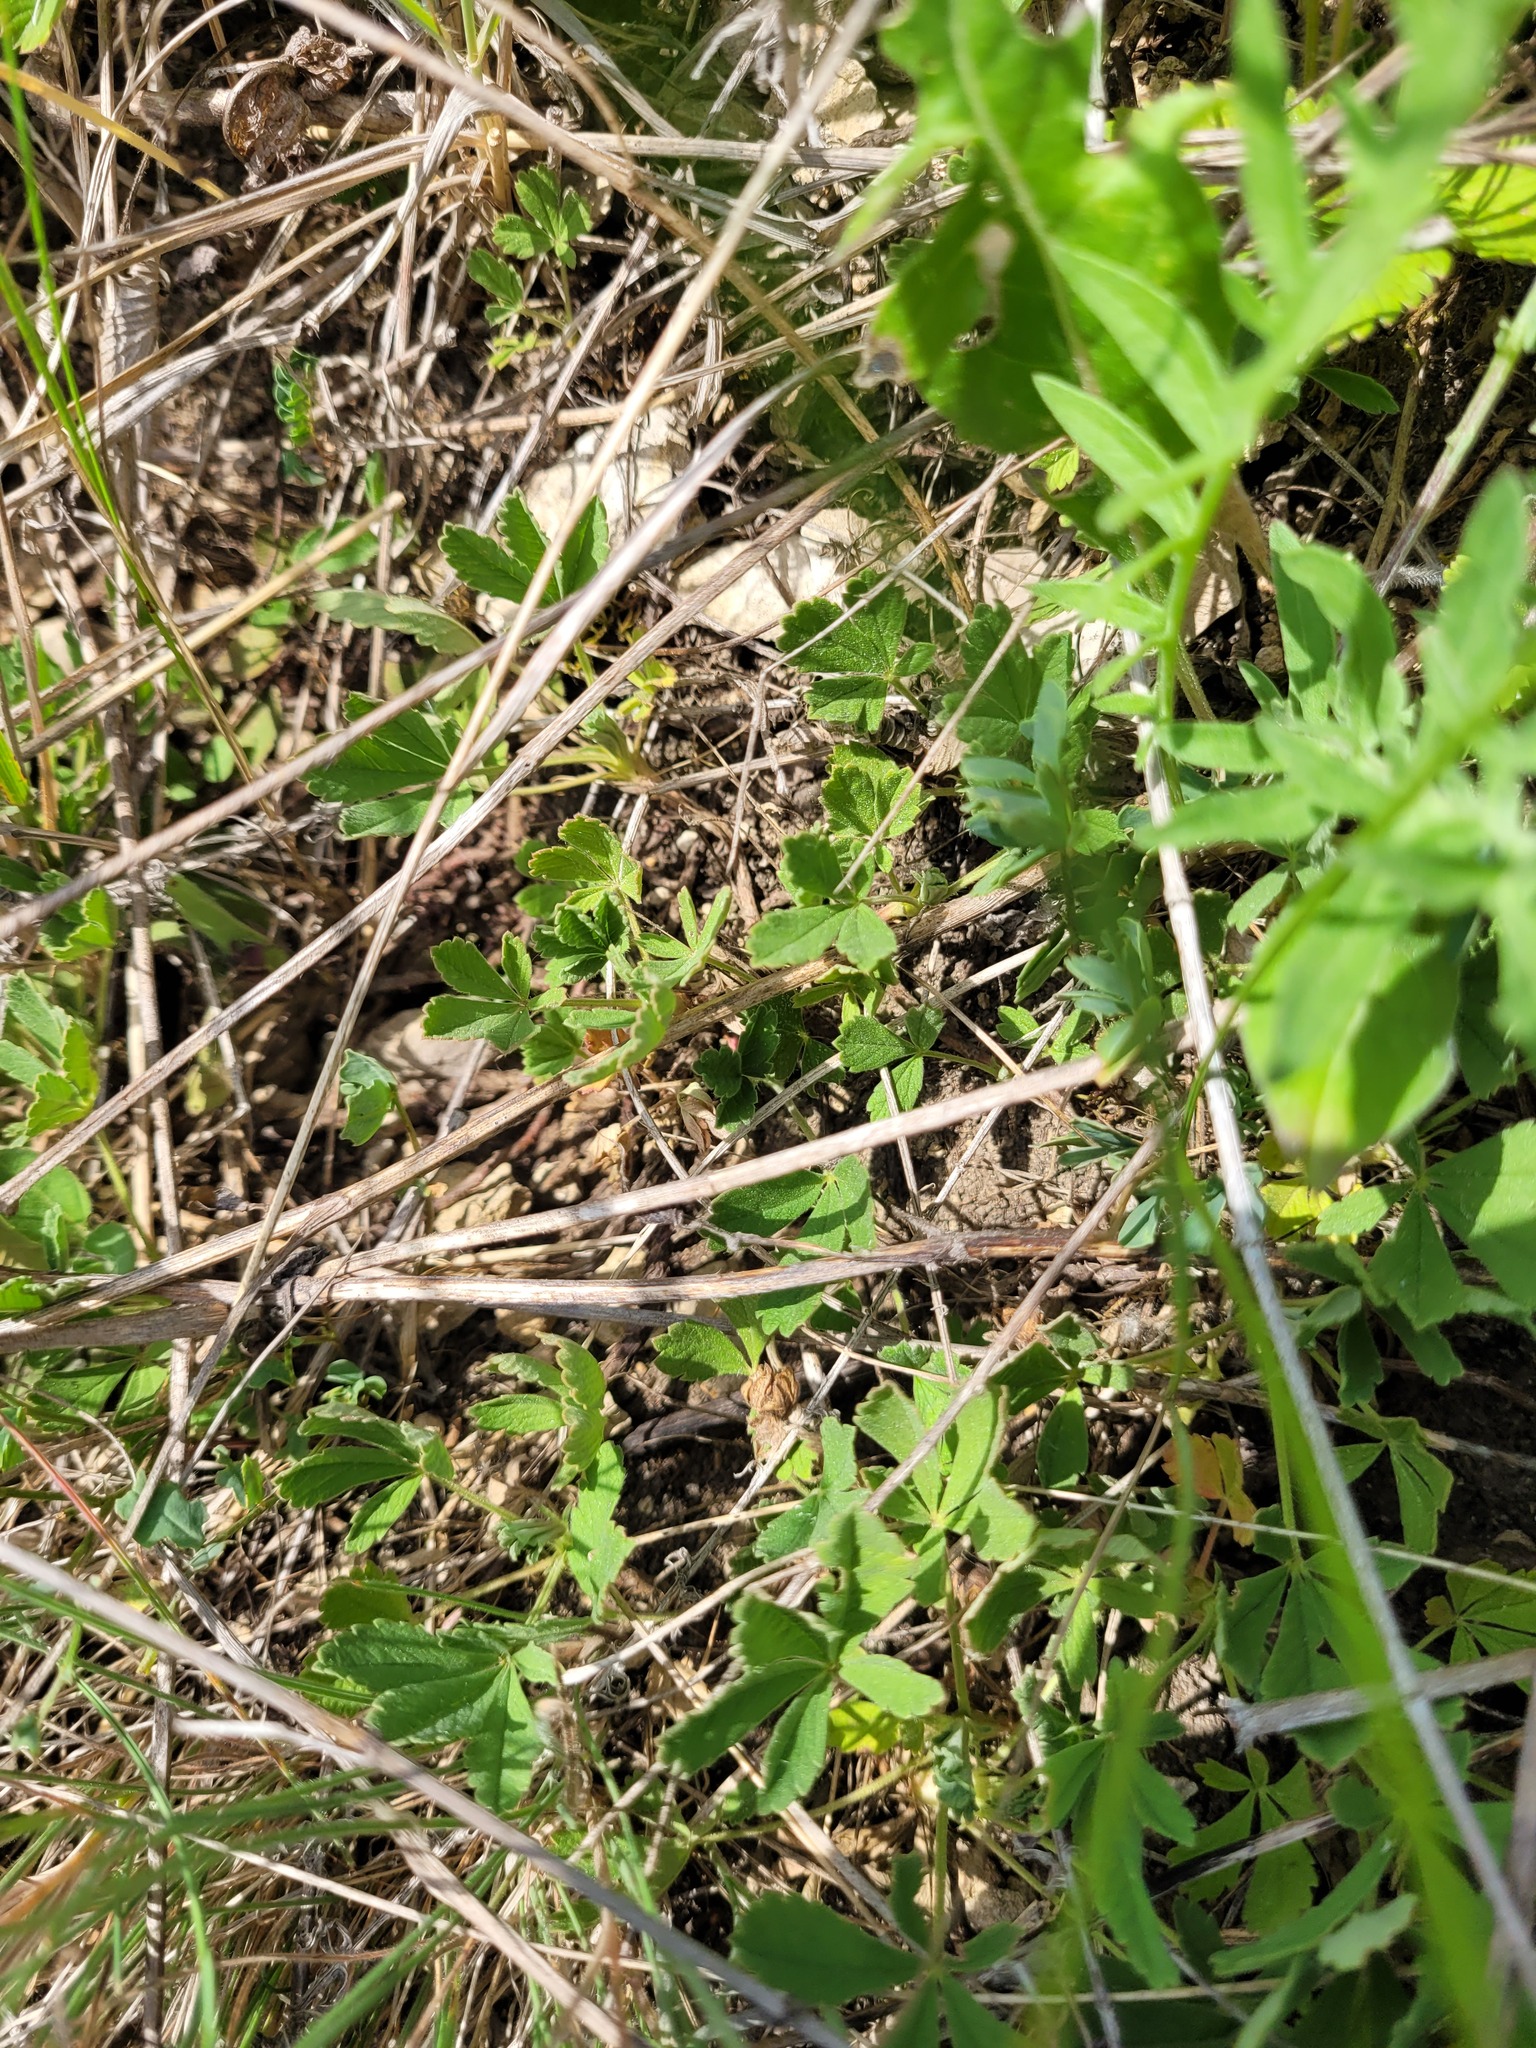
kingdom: Plantae
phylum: Tracheophyta
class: Magnoliopsida
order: Rosales
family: Rosaceae
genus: Potentilla
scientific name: Potentilla incana
